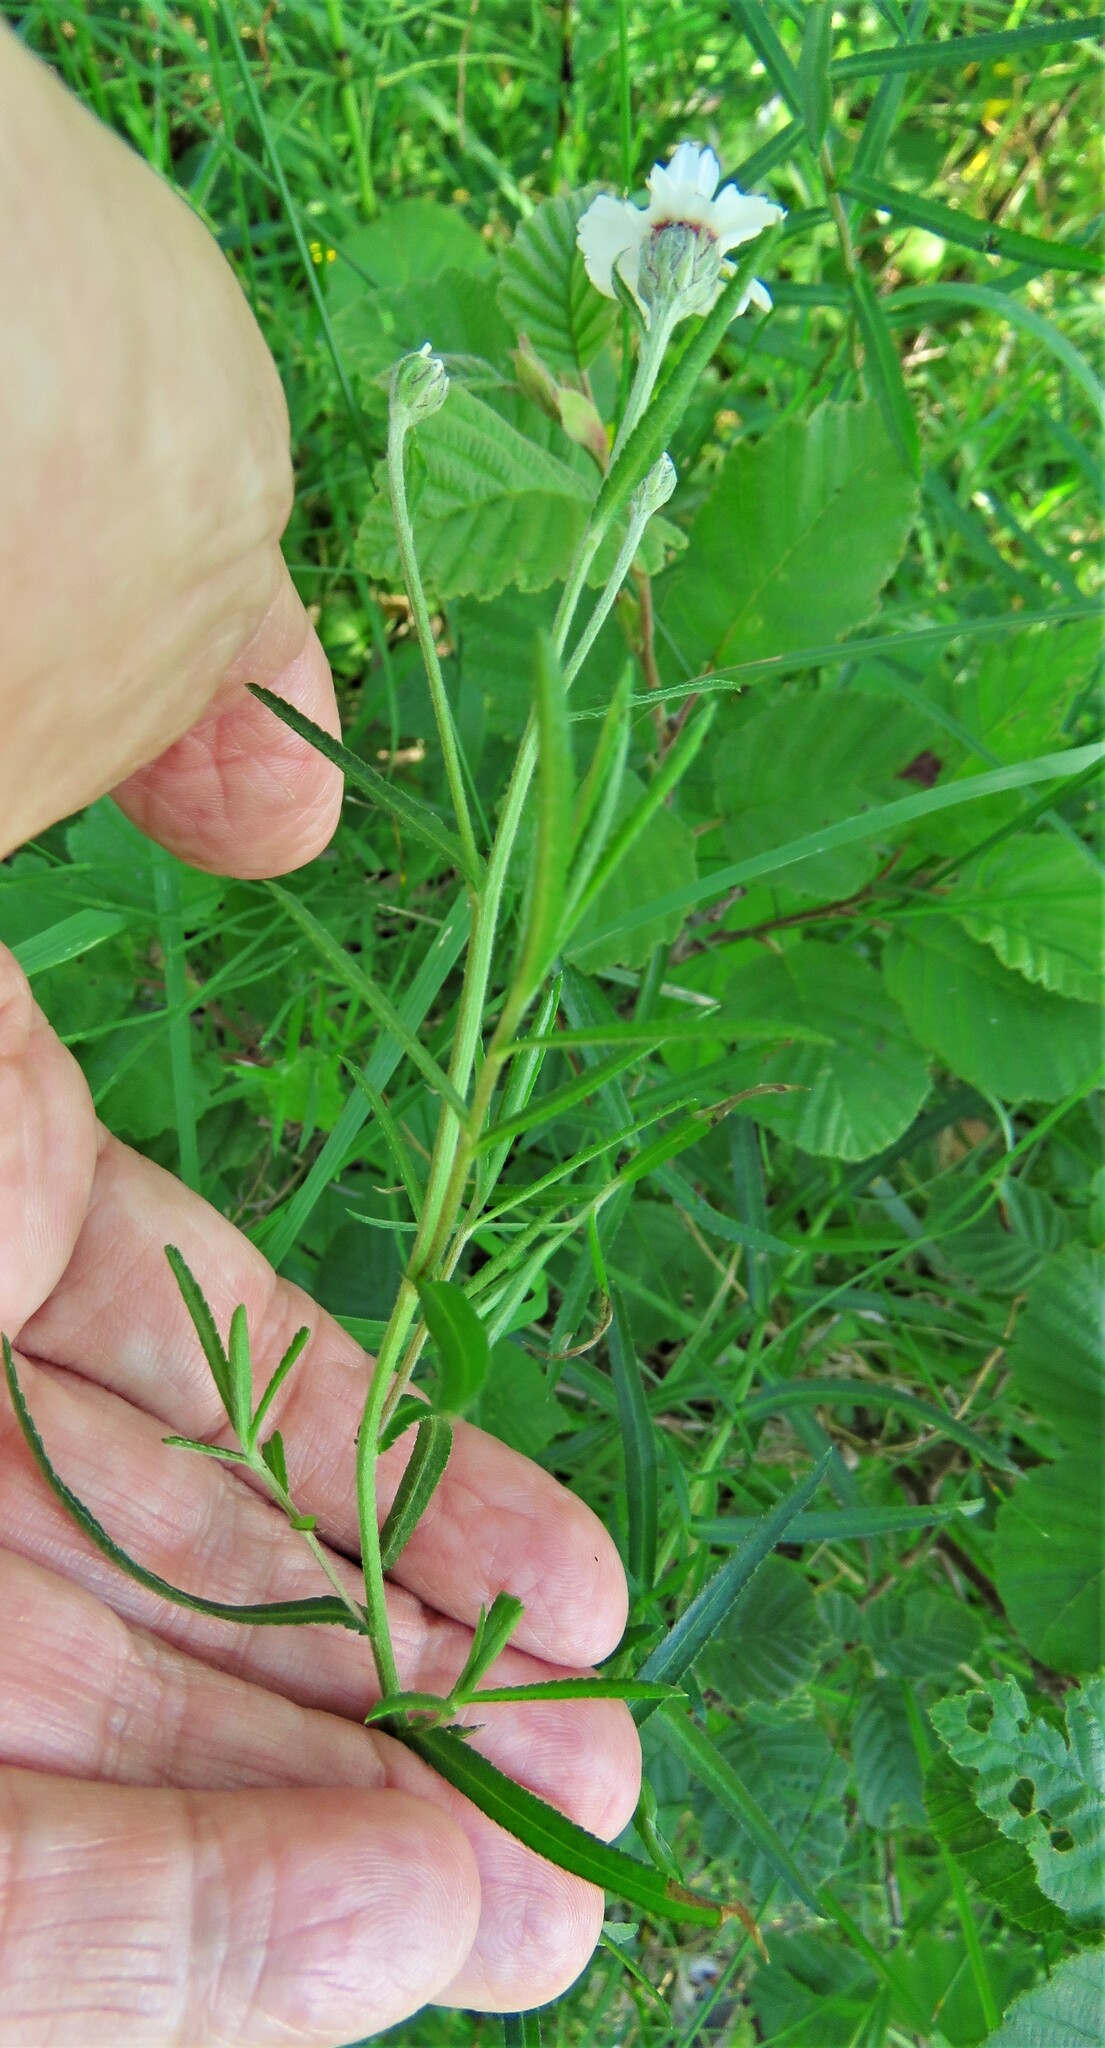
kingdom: Plantae
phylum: Tracheophyta
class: Magnoliopsida
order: Asterales
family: Asteraceae
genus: Achillea
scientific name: Achillea ptarmica
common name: Sneezeweed
